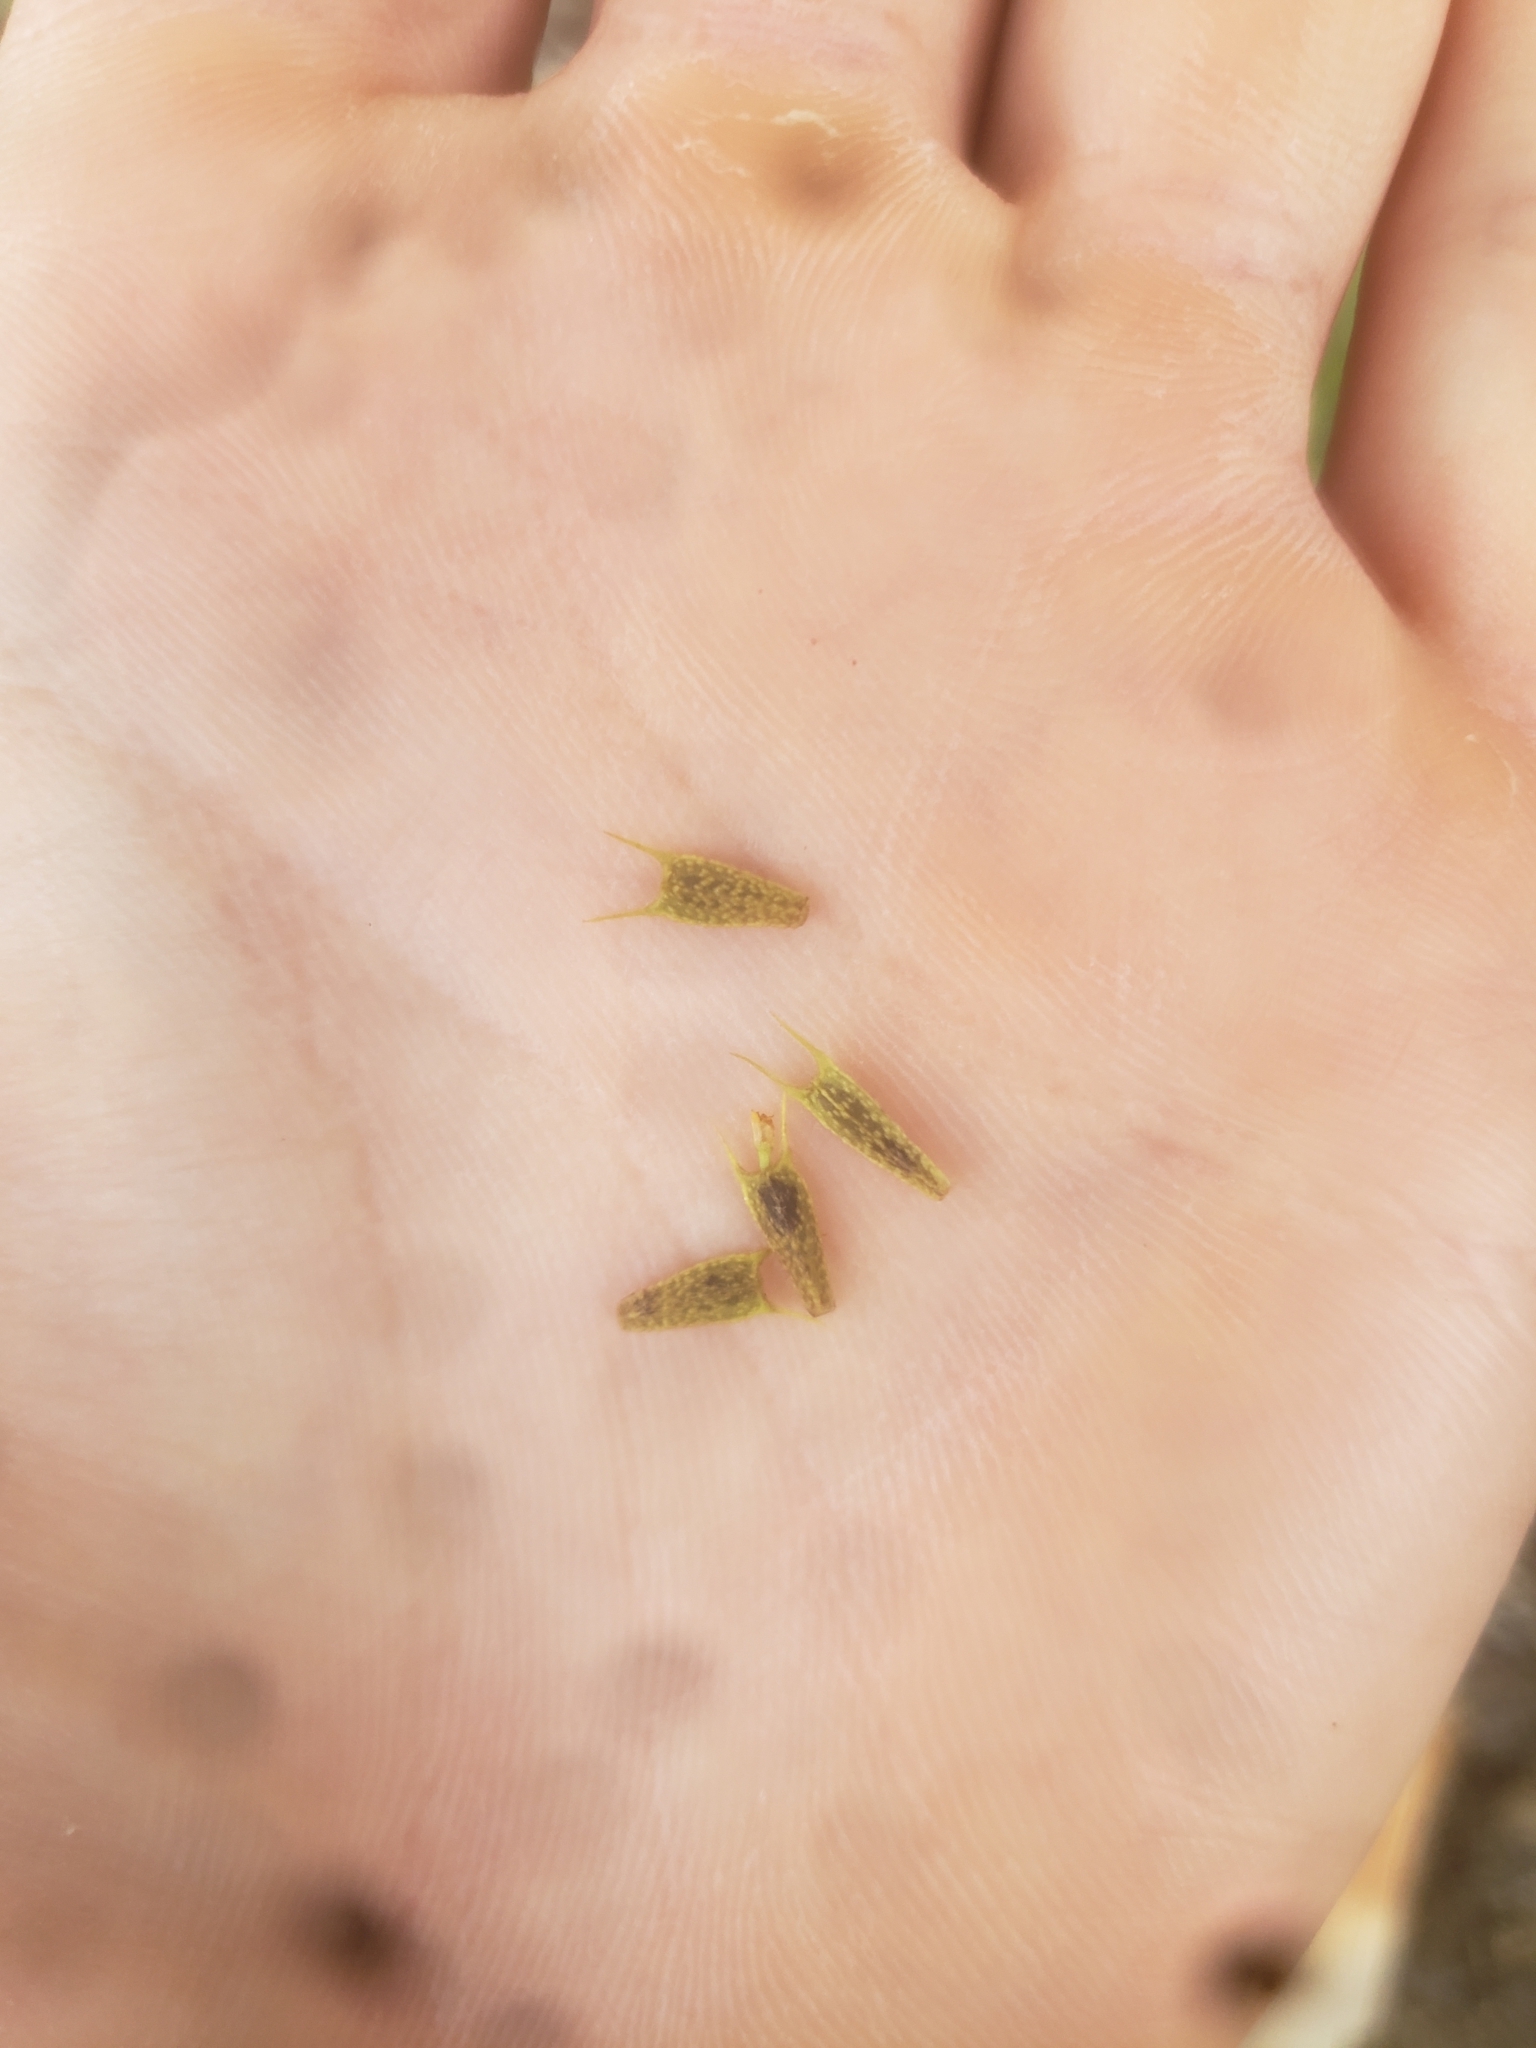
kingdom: Plantae
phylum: Tracheophyta
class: Magnoliopsida
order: Asterales
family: Asteraceae
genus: Bidens
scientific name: Bidens frondosa
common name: Beggarticks
